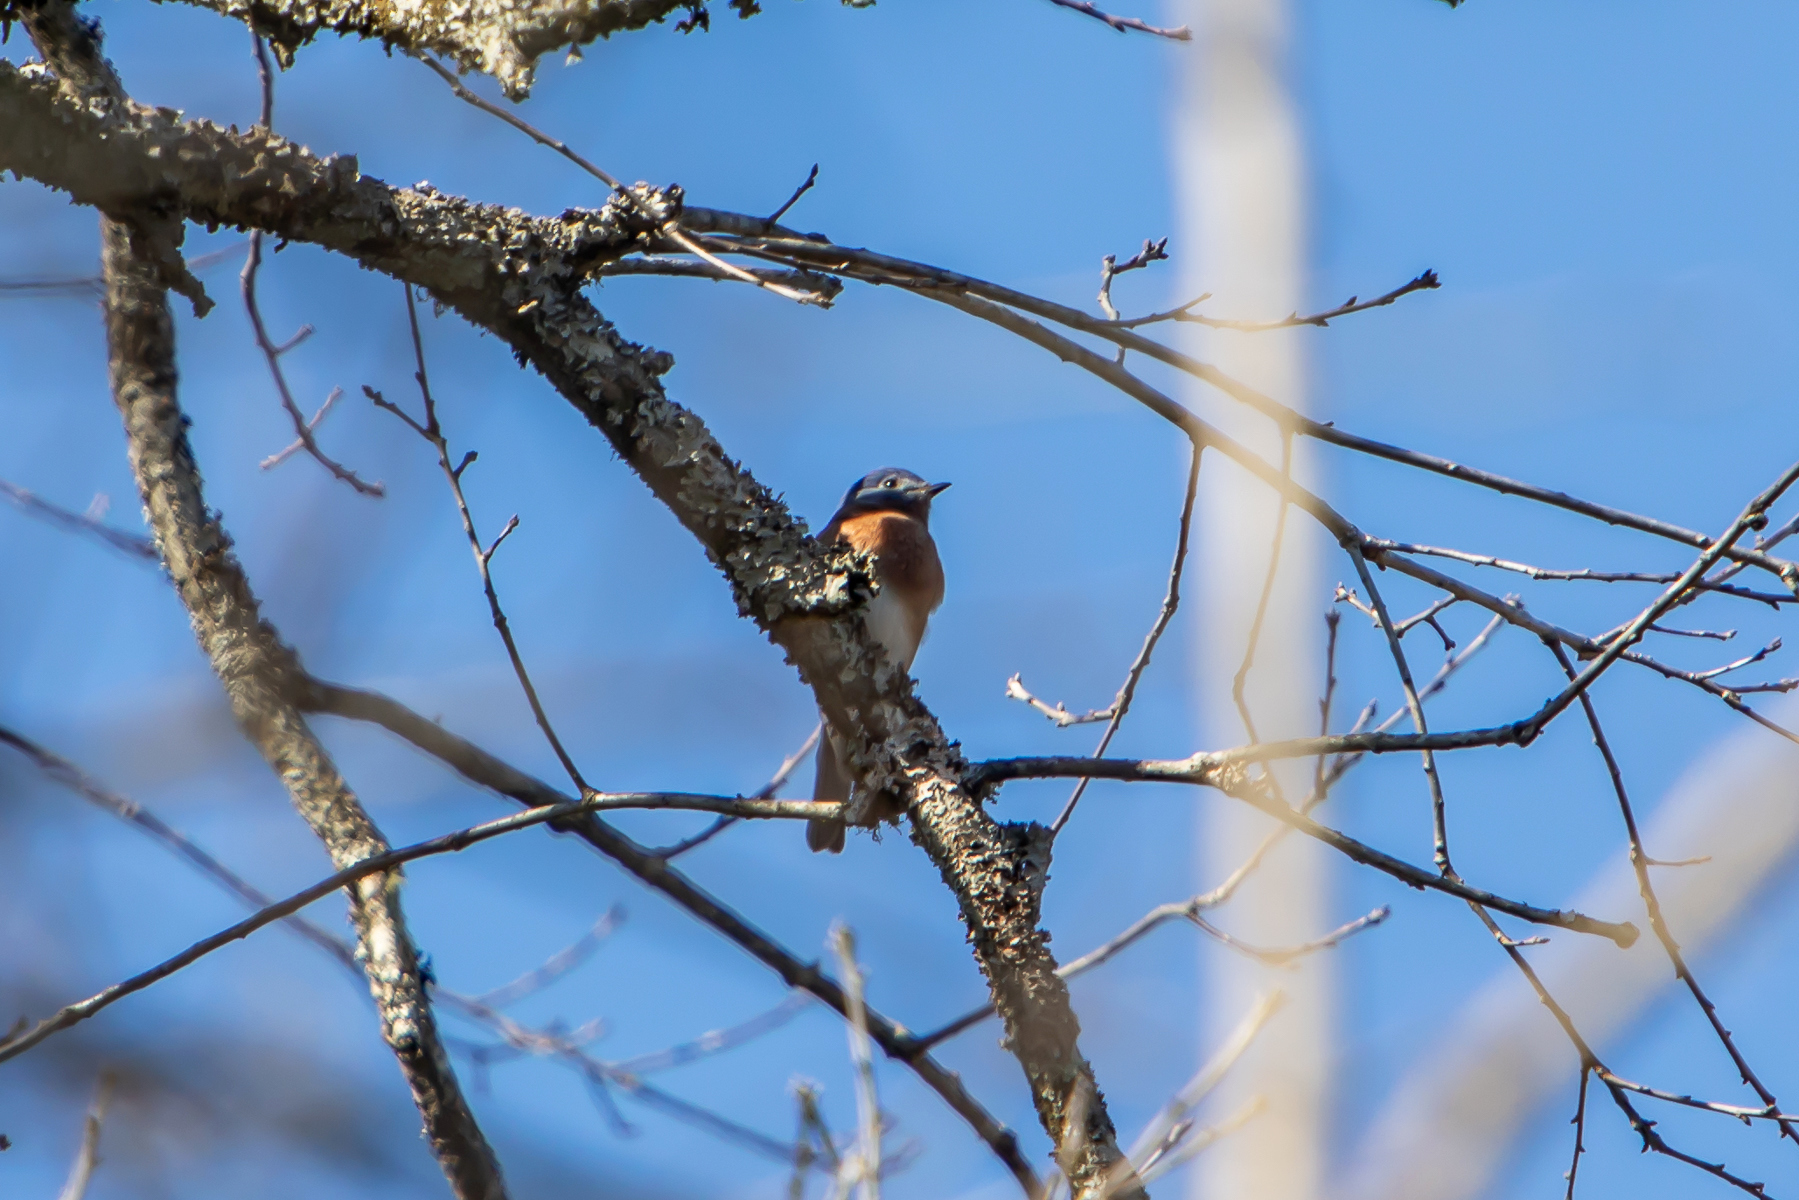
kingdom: Animalia
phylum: Chordata
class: Aves
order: Passeriformes
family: Turdidae
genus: Sialia
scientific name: Sialia sialis
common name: Eastern bluebird
